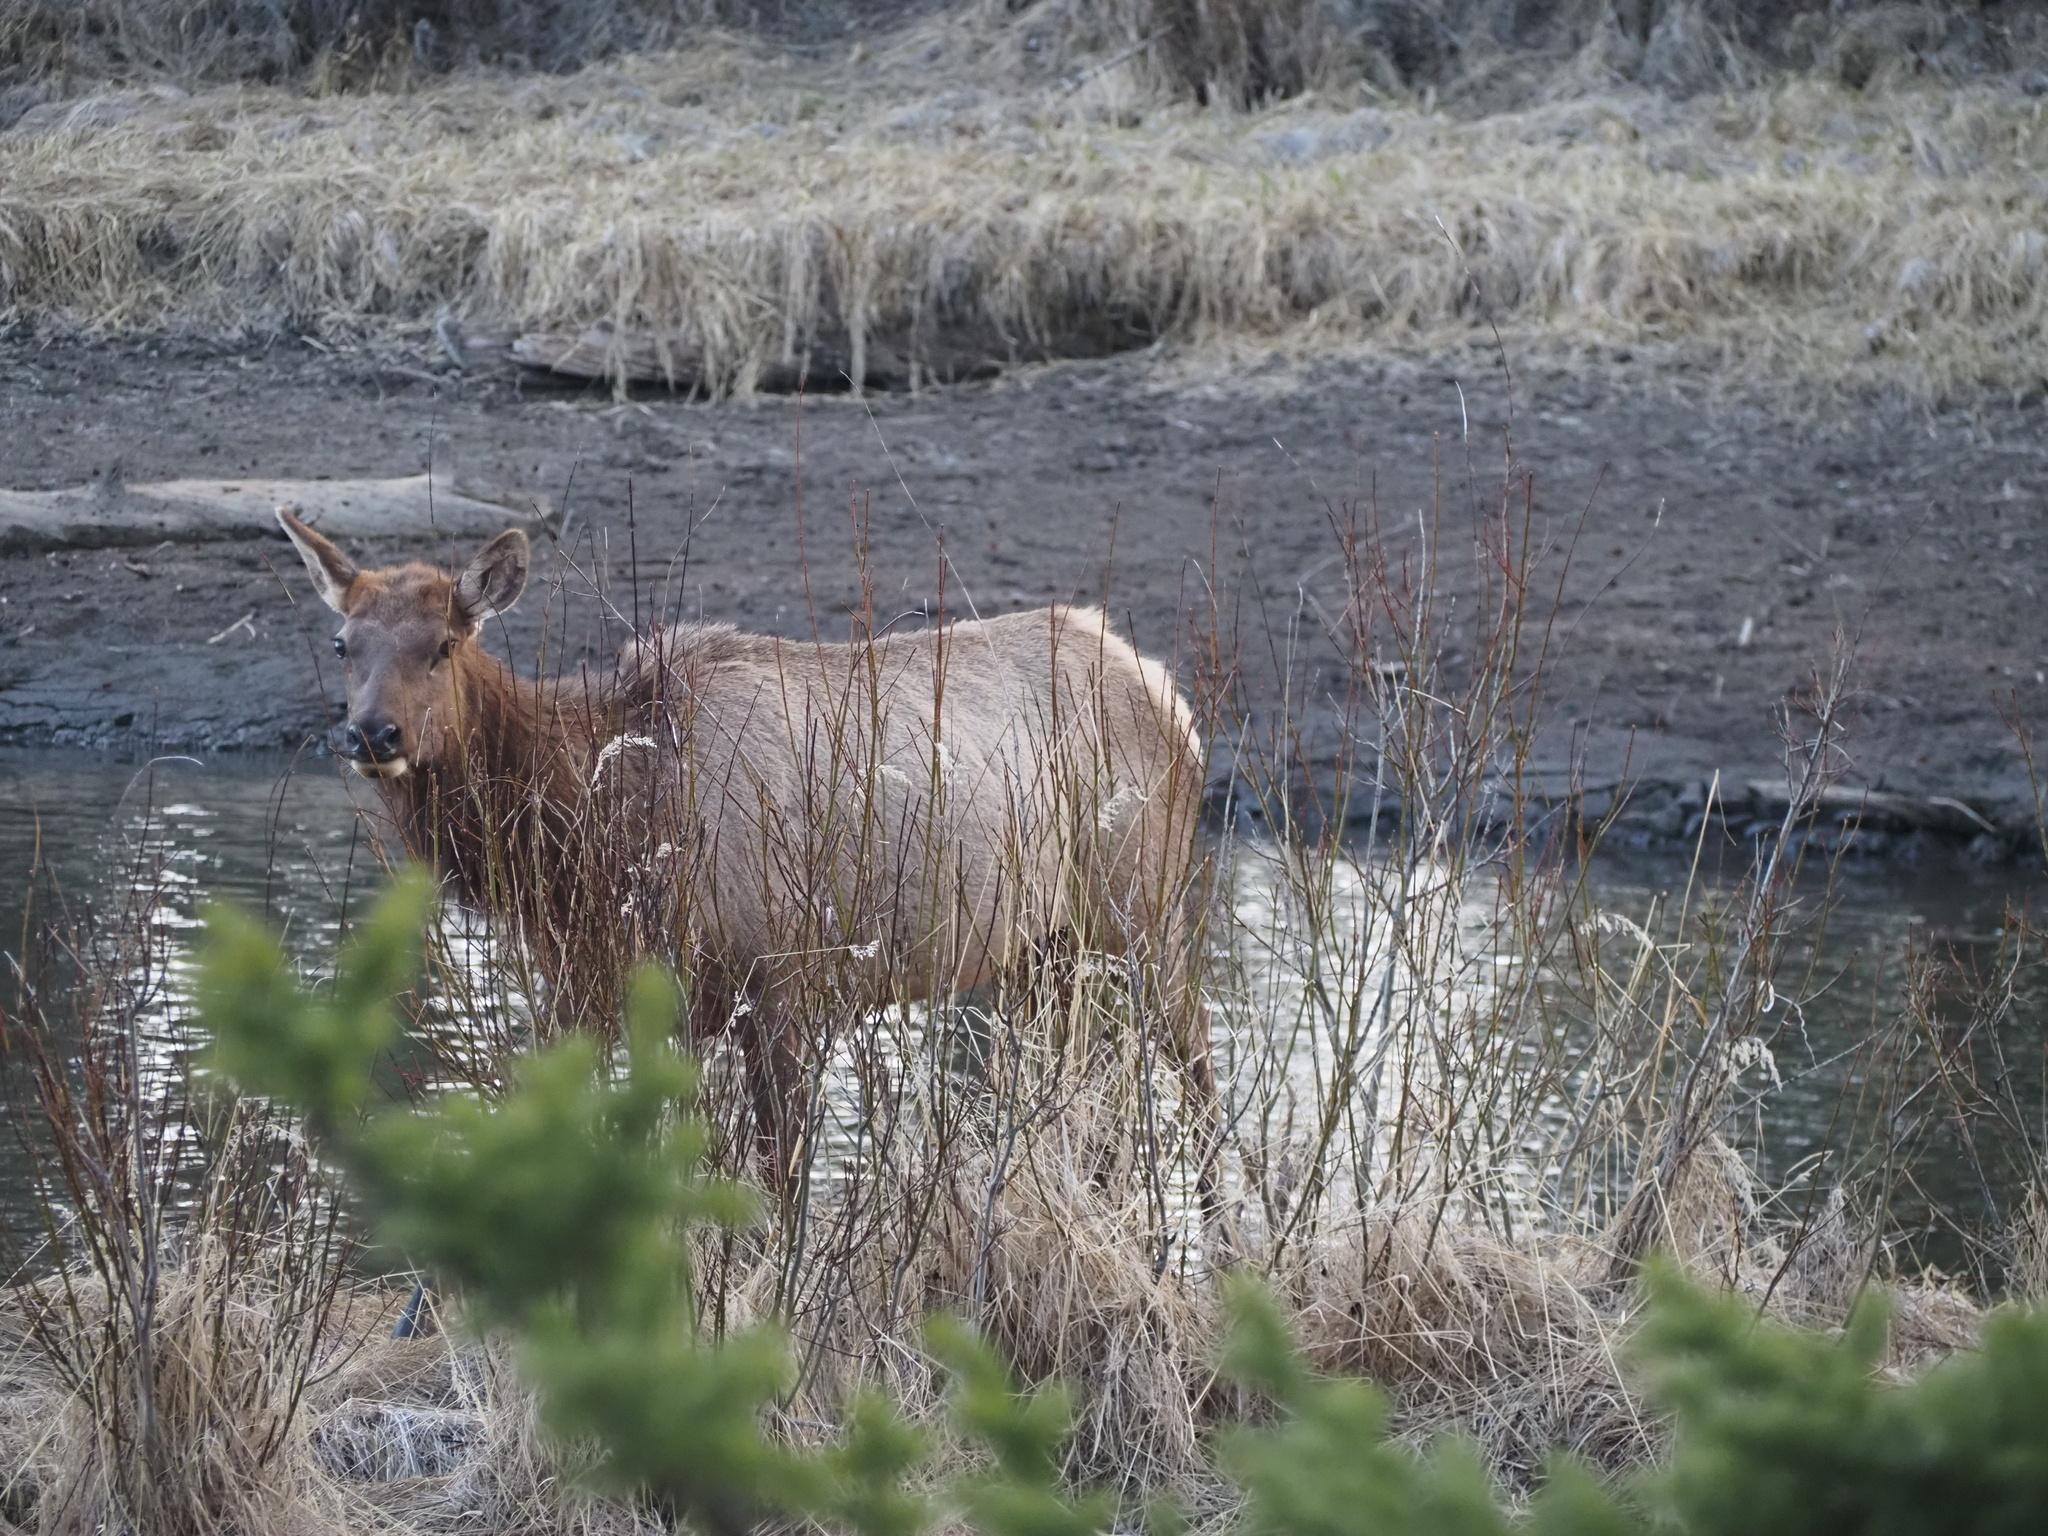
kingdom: Animalia
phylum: Chordata
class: Mammalia
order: Artiodactyla
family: Cervidae
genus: Cervus
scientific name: Cervus elaphus
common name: Red deer
